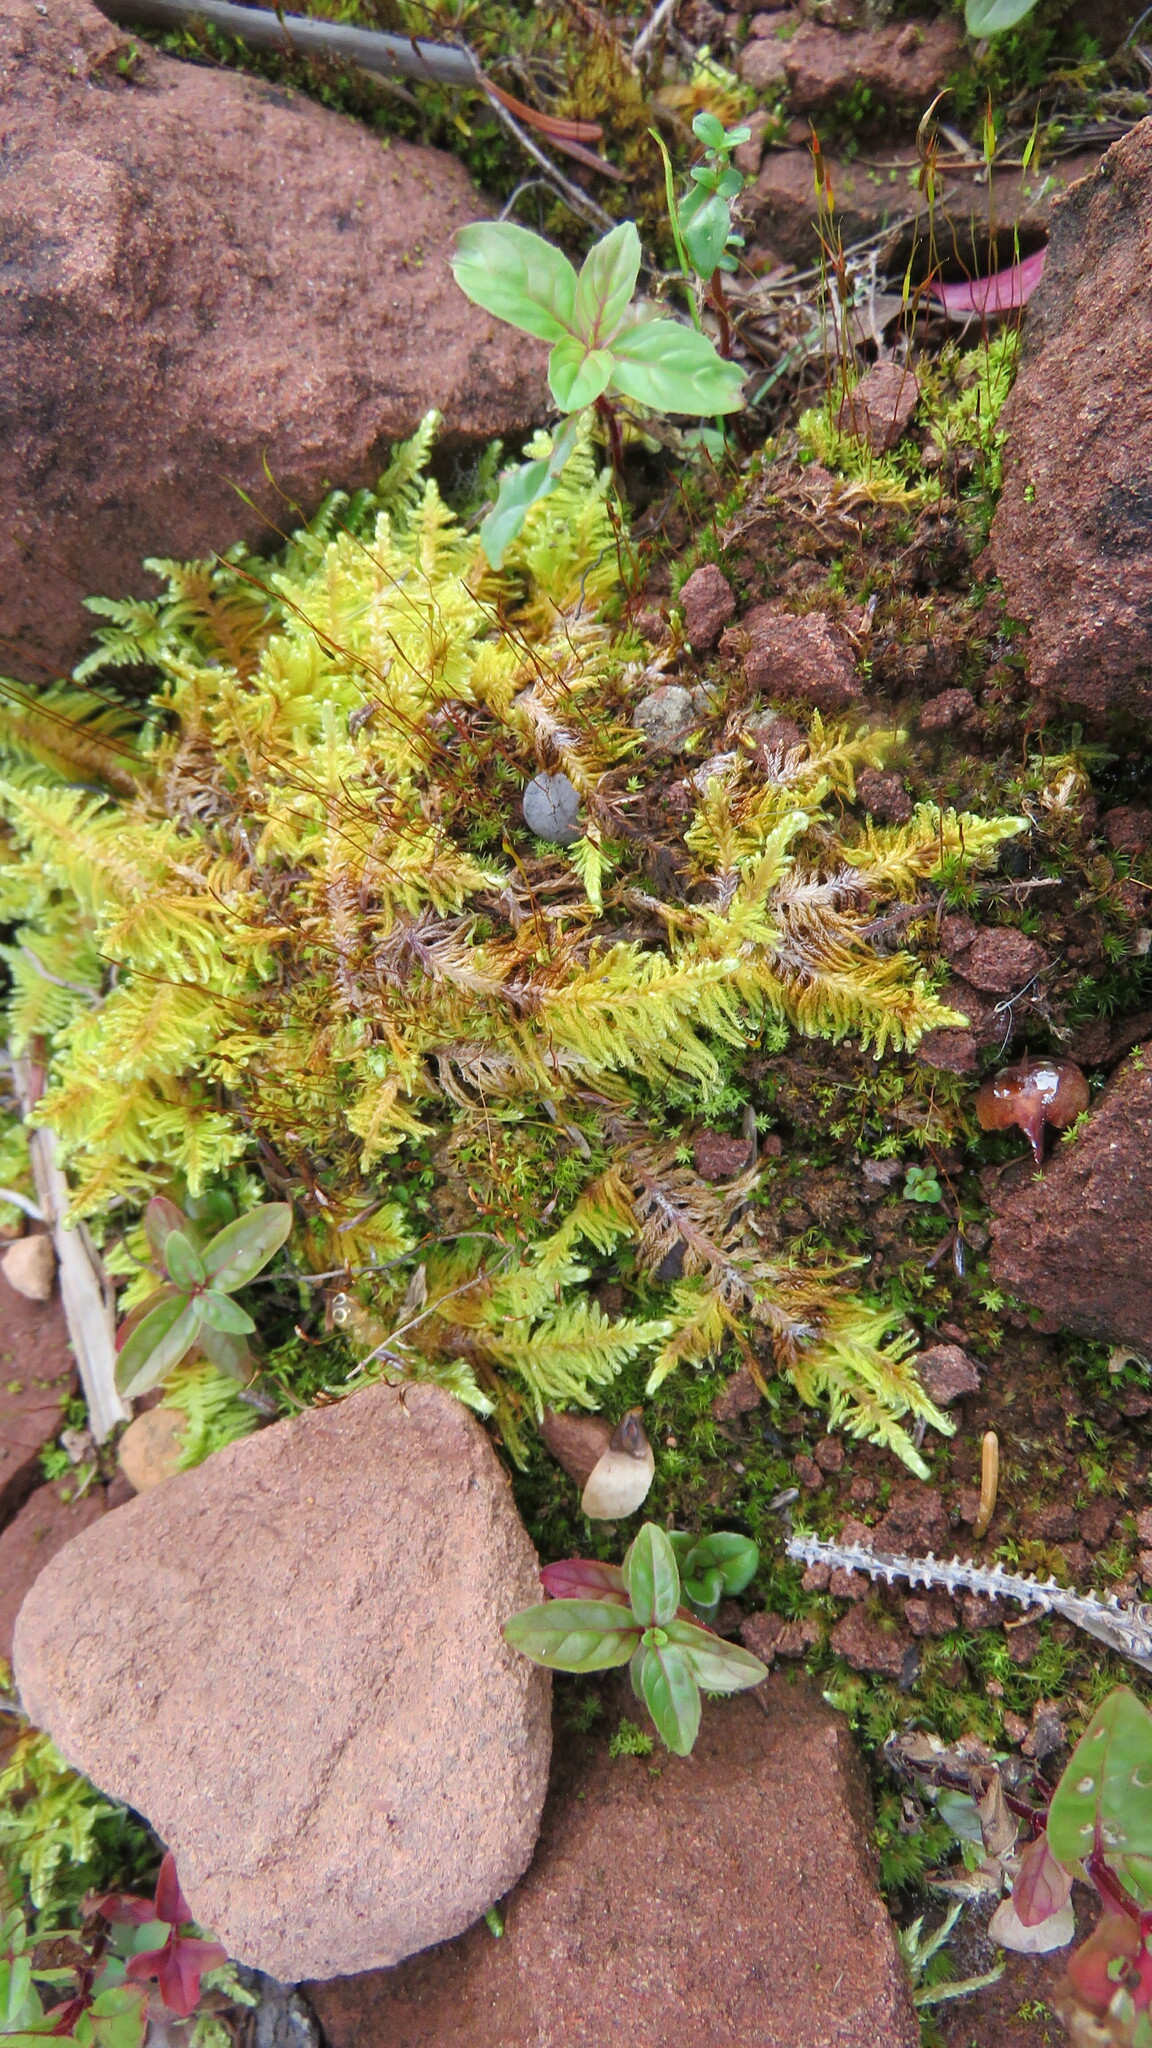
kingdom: Plantae
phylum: Bryophyta
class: Bryopsida
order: Hypnales
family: Pylaisiaceae
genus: Ptilium
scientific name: Ptilium crista-castrensis
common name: Knight's plume moss
